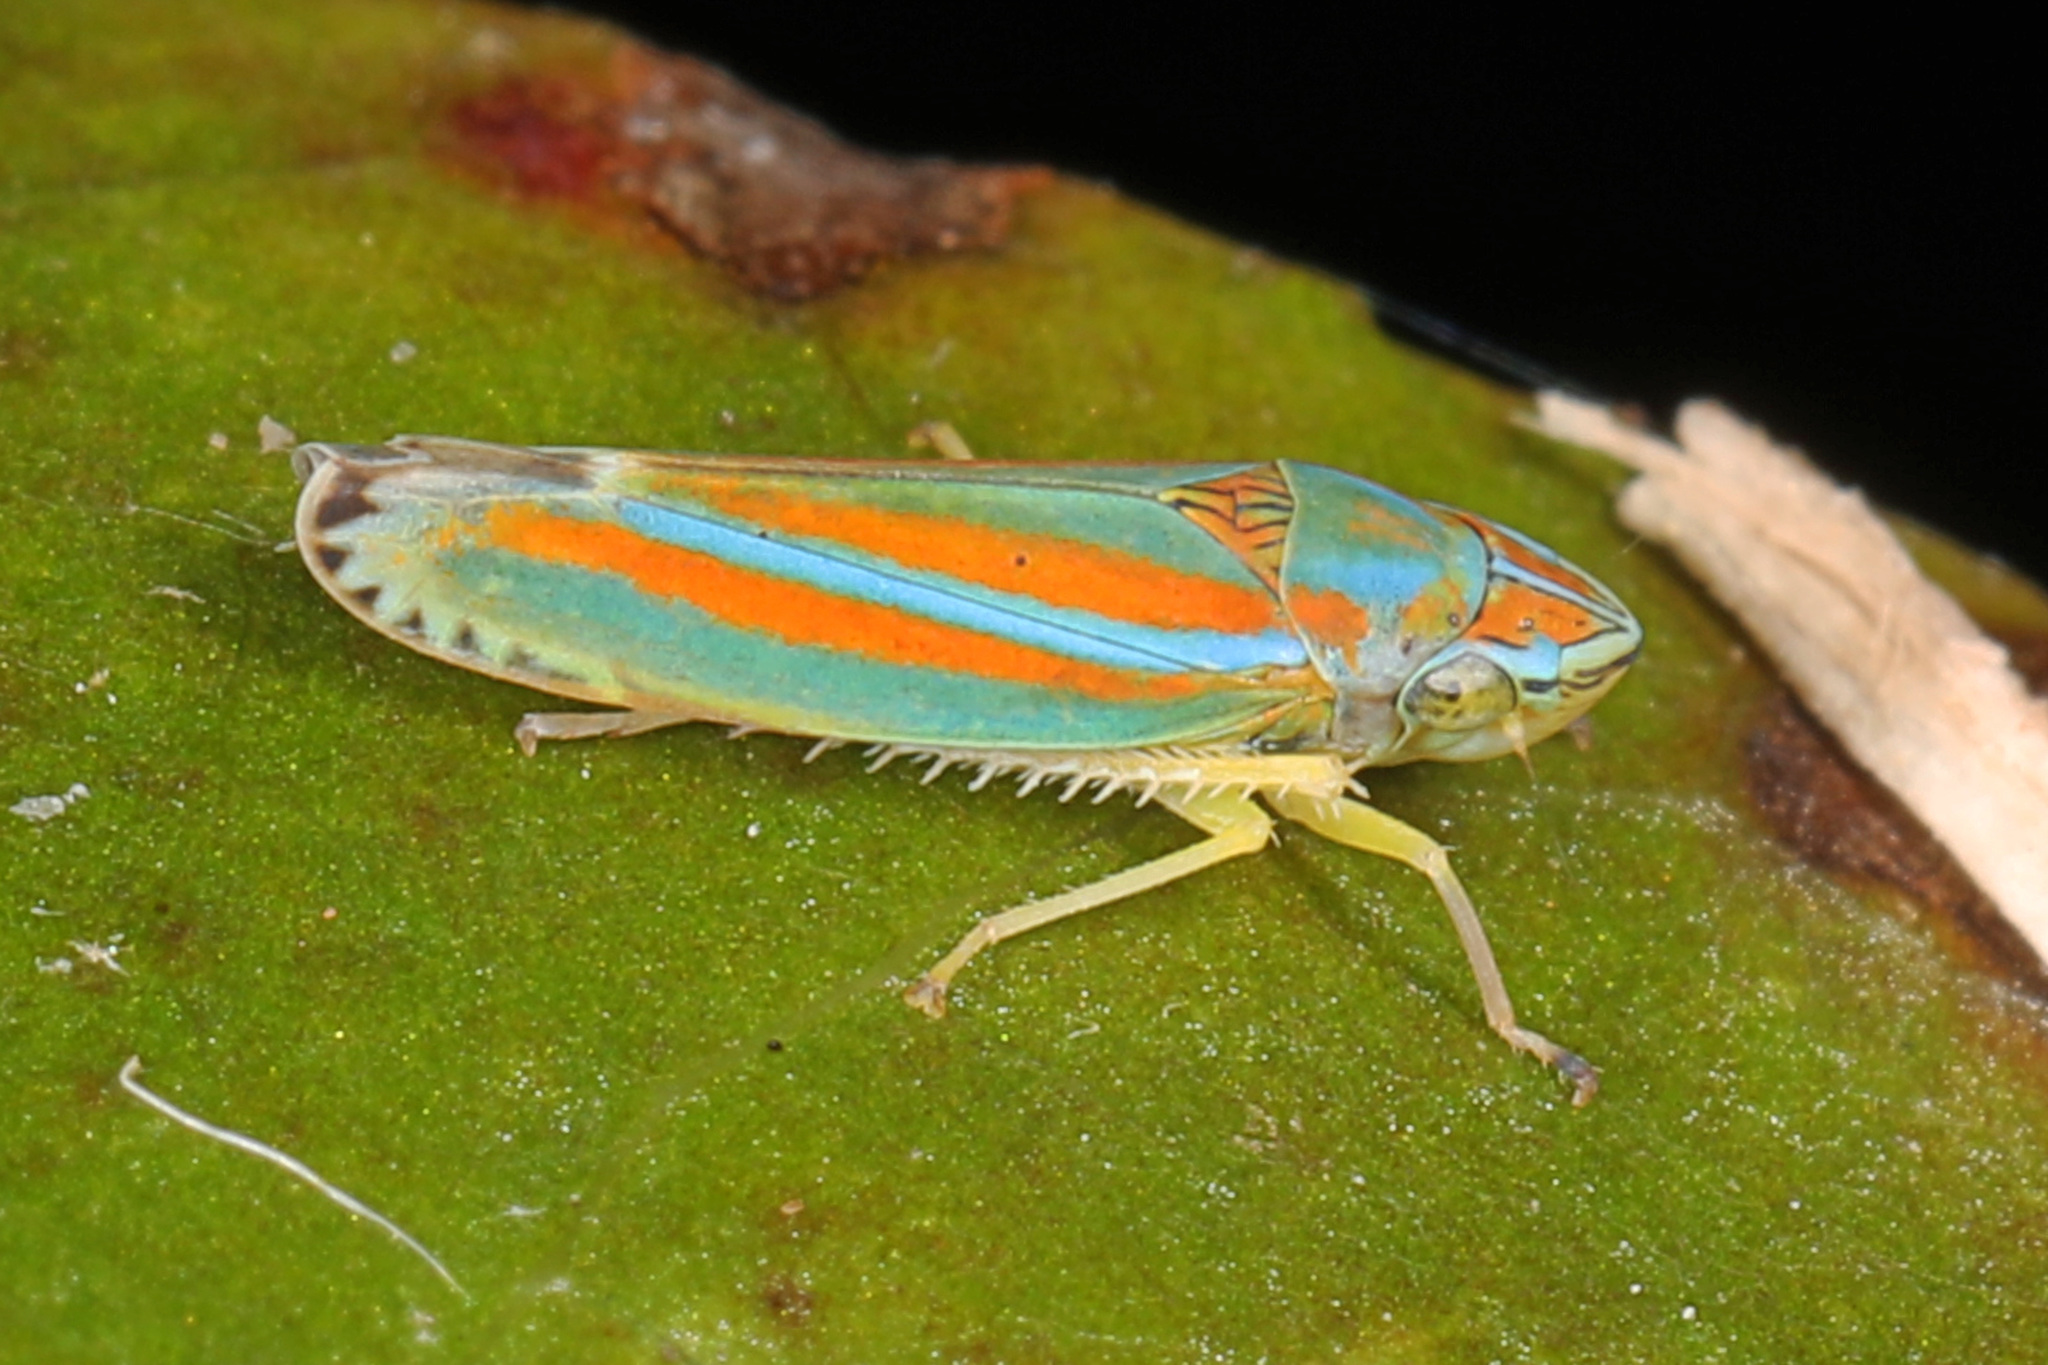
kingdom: Animalia
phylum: Arthropoda
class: Insecta
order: Hemiptera
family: Cicadellidae
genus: Graphocephala
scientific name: Graphocephala versuta
